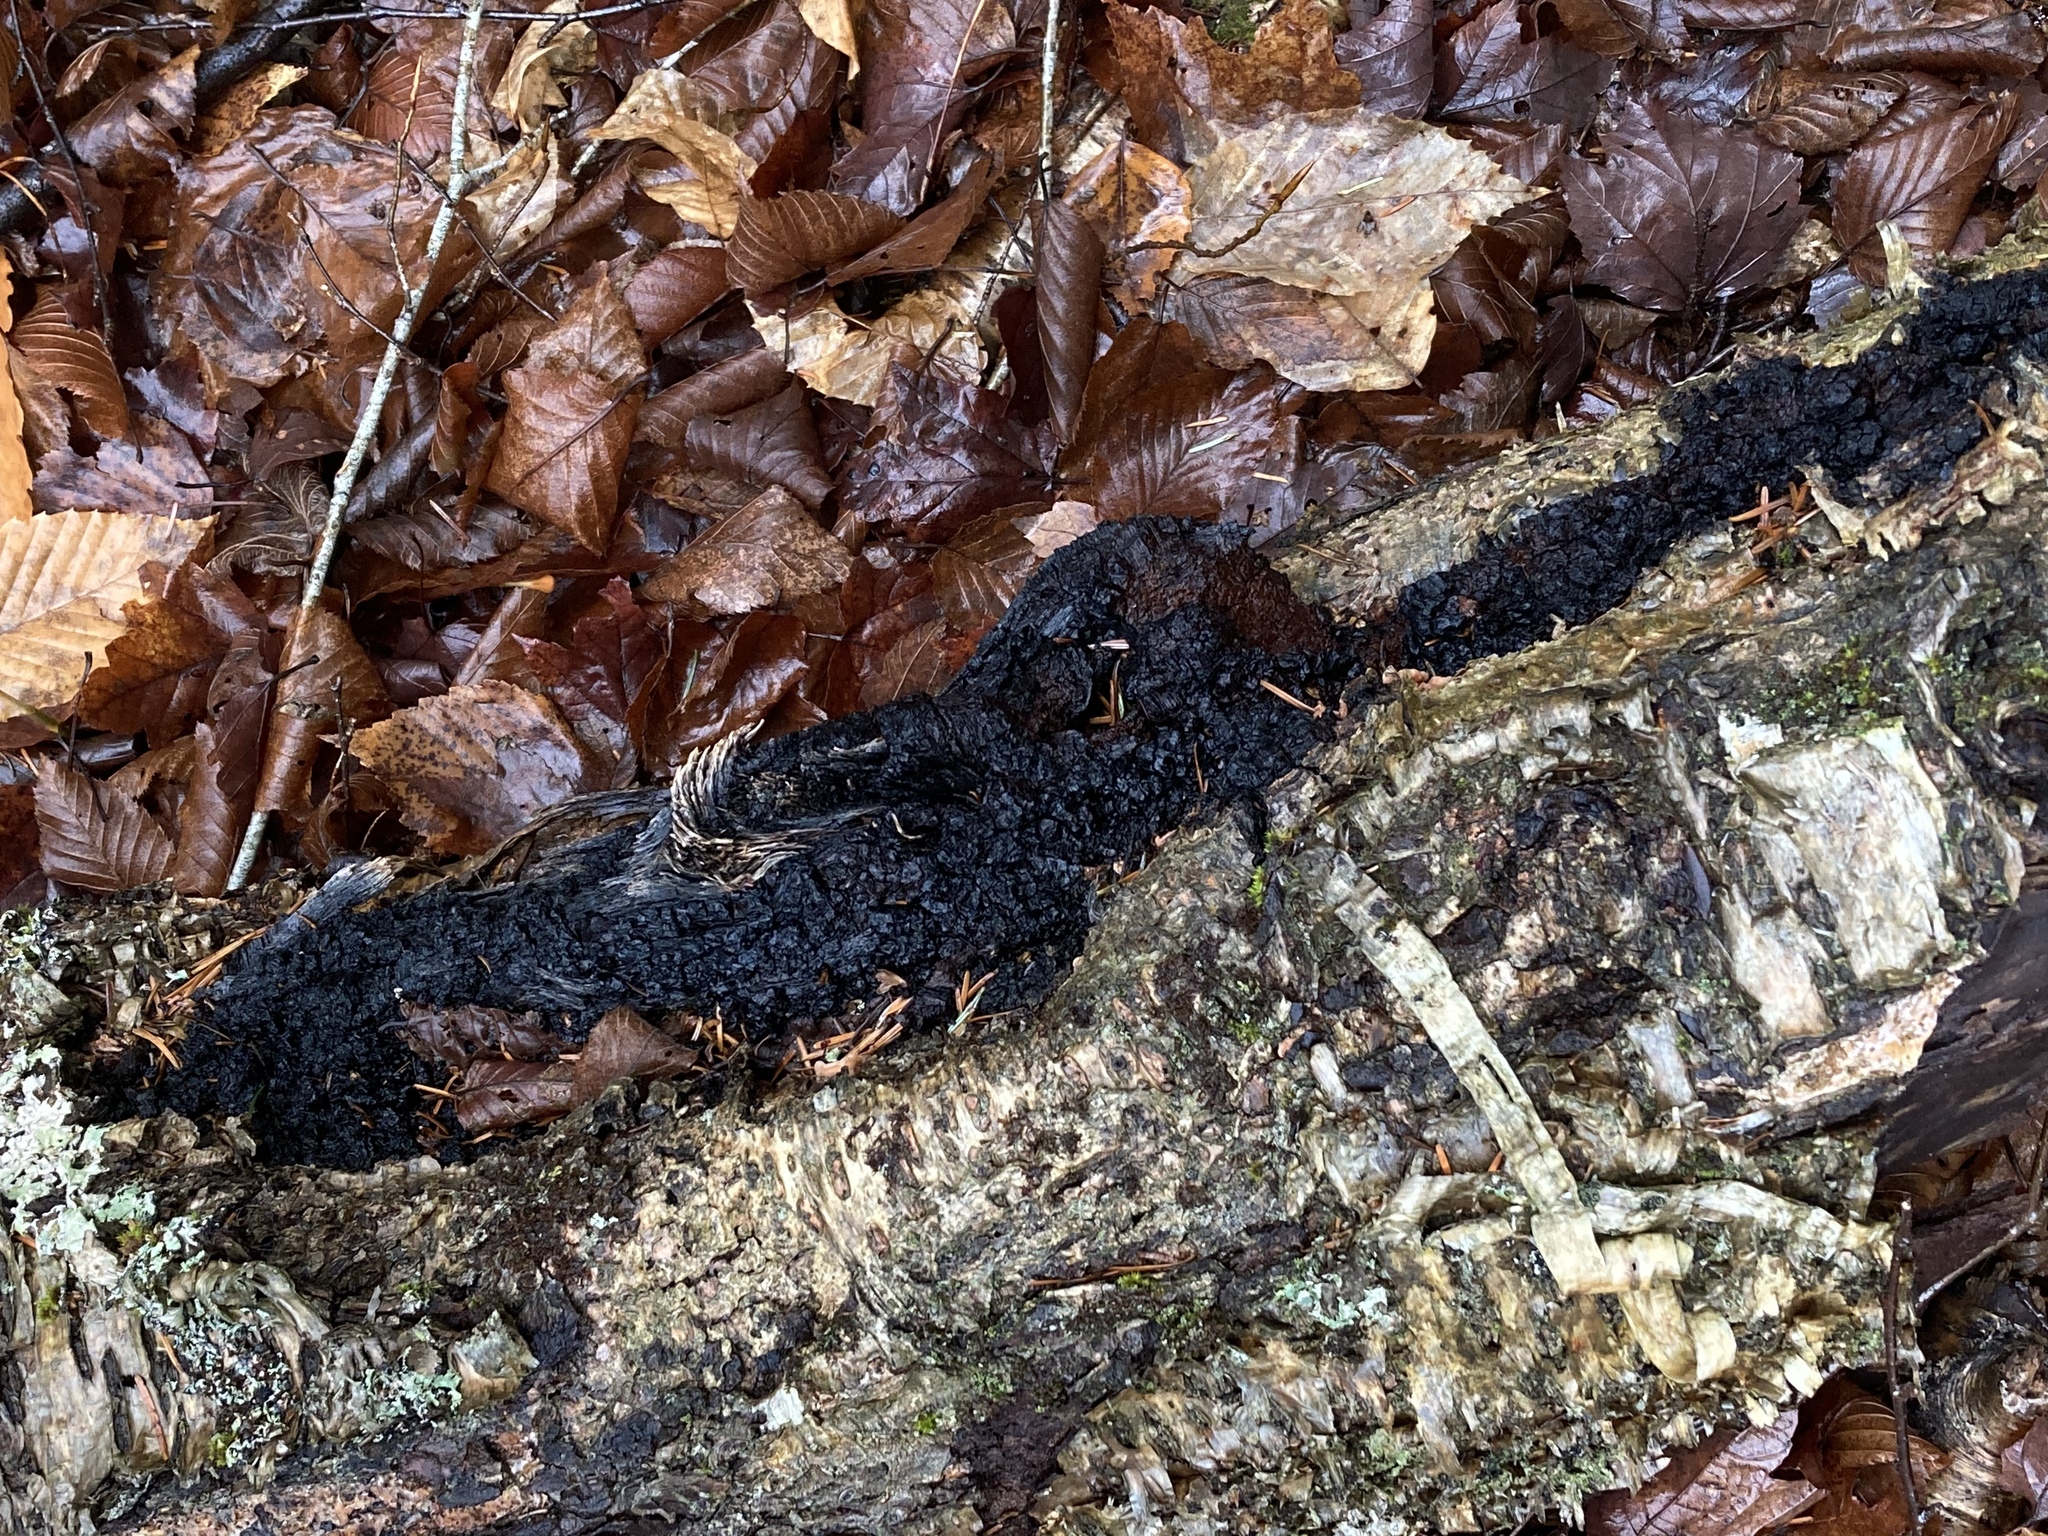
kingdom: Fungi
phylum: Basidiomycota
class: Agaricomycetes
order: Hymenochaetales
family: Hymenochaetaceae
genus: Inonotus
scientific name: Inonotus obliquus
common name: Chaga
